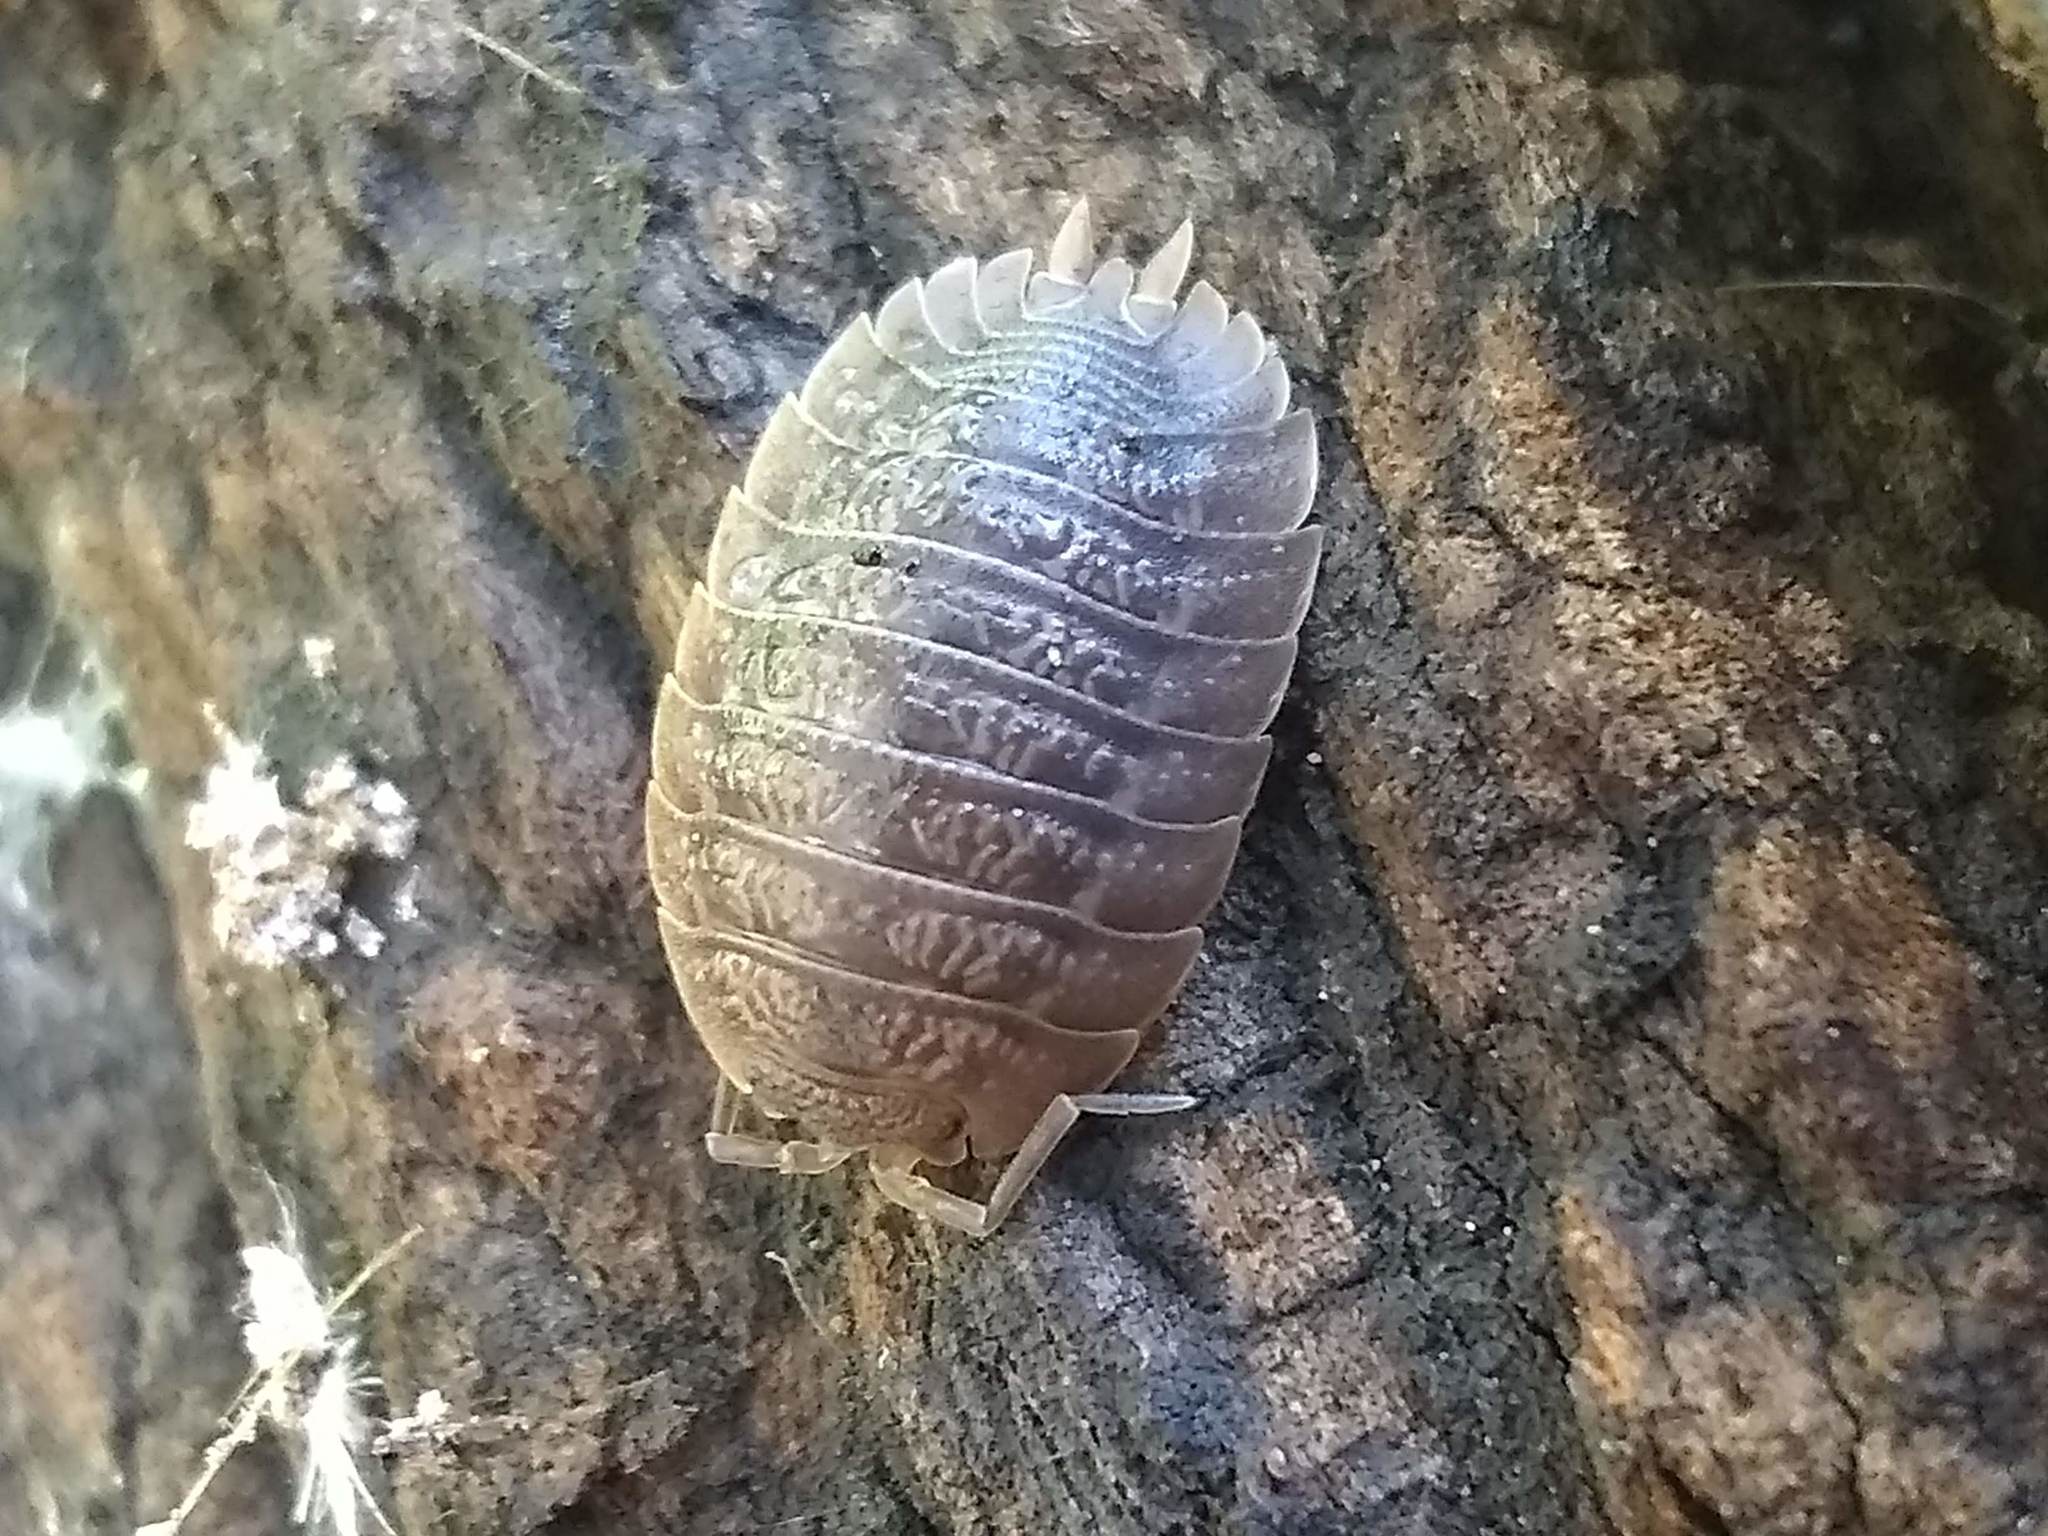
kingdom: Animalia
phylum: Arthropoda
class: Malacostraca
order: Isopoda
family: Porcellionidae
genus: Porcellio
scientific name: Porcellio dilatatus
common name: Isopod
